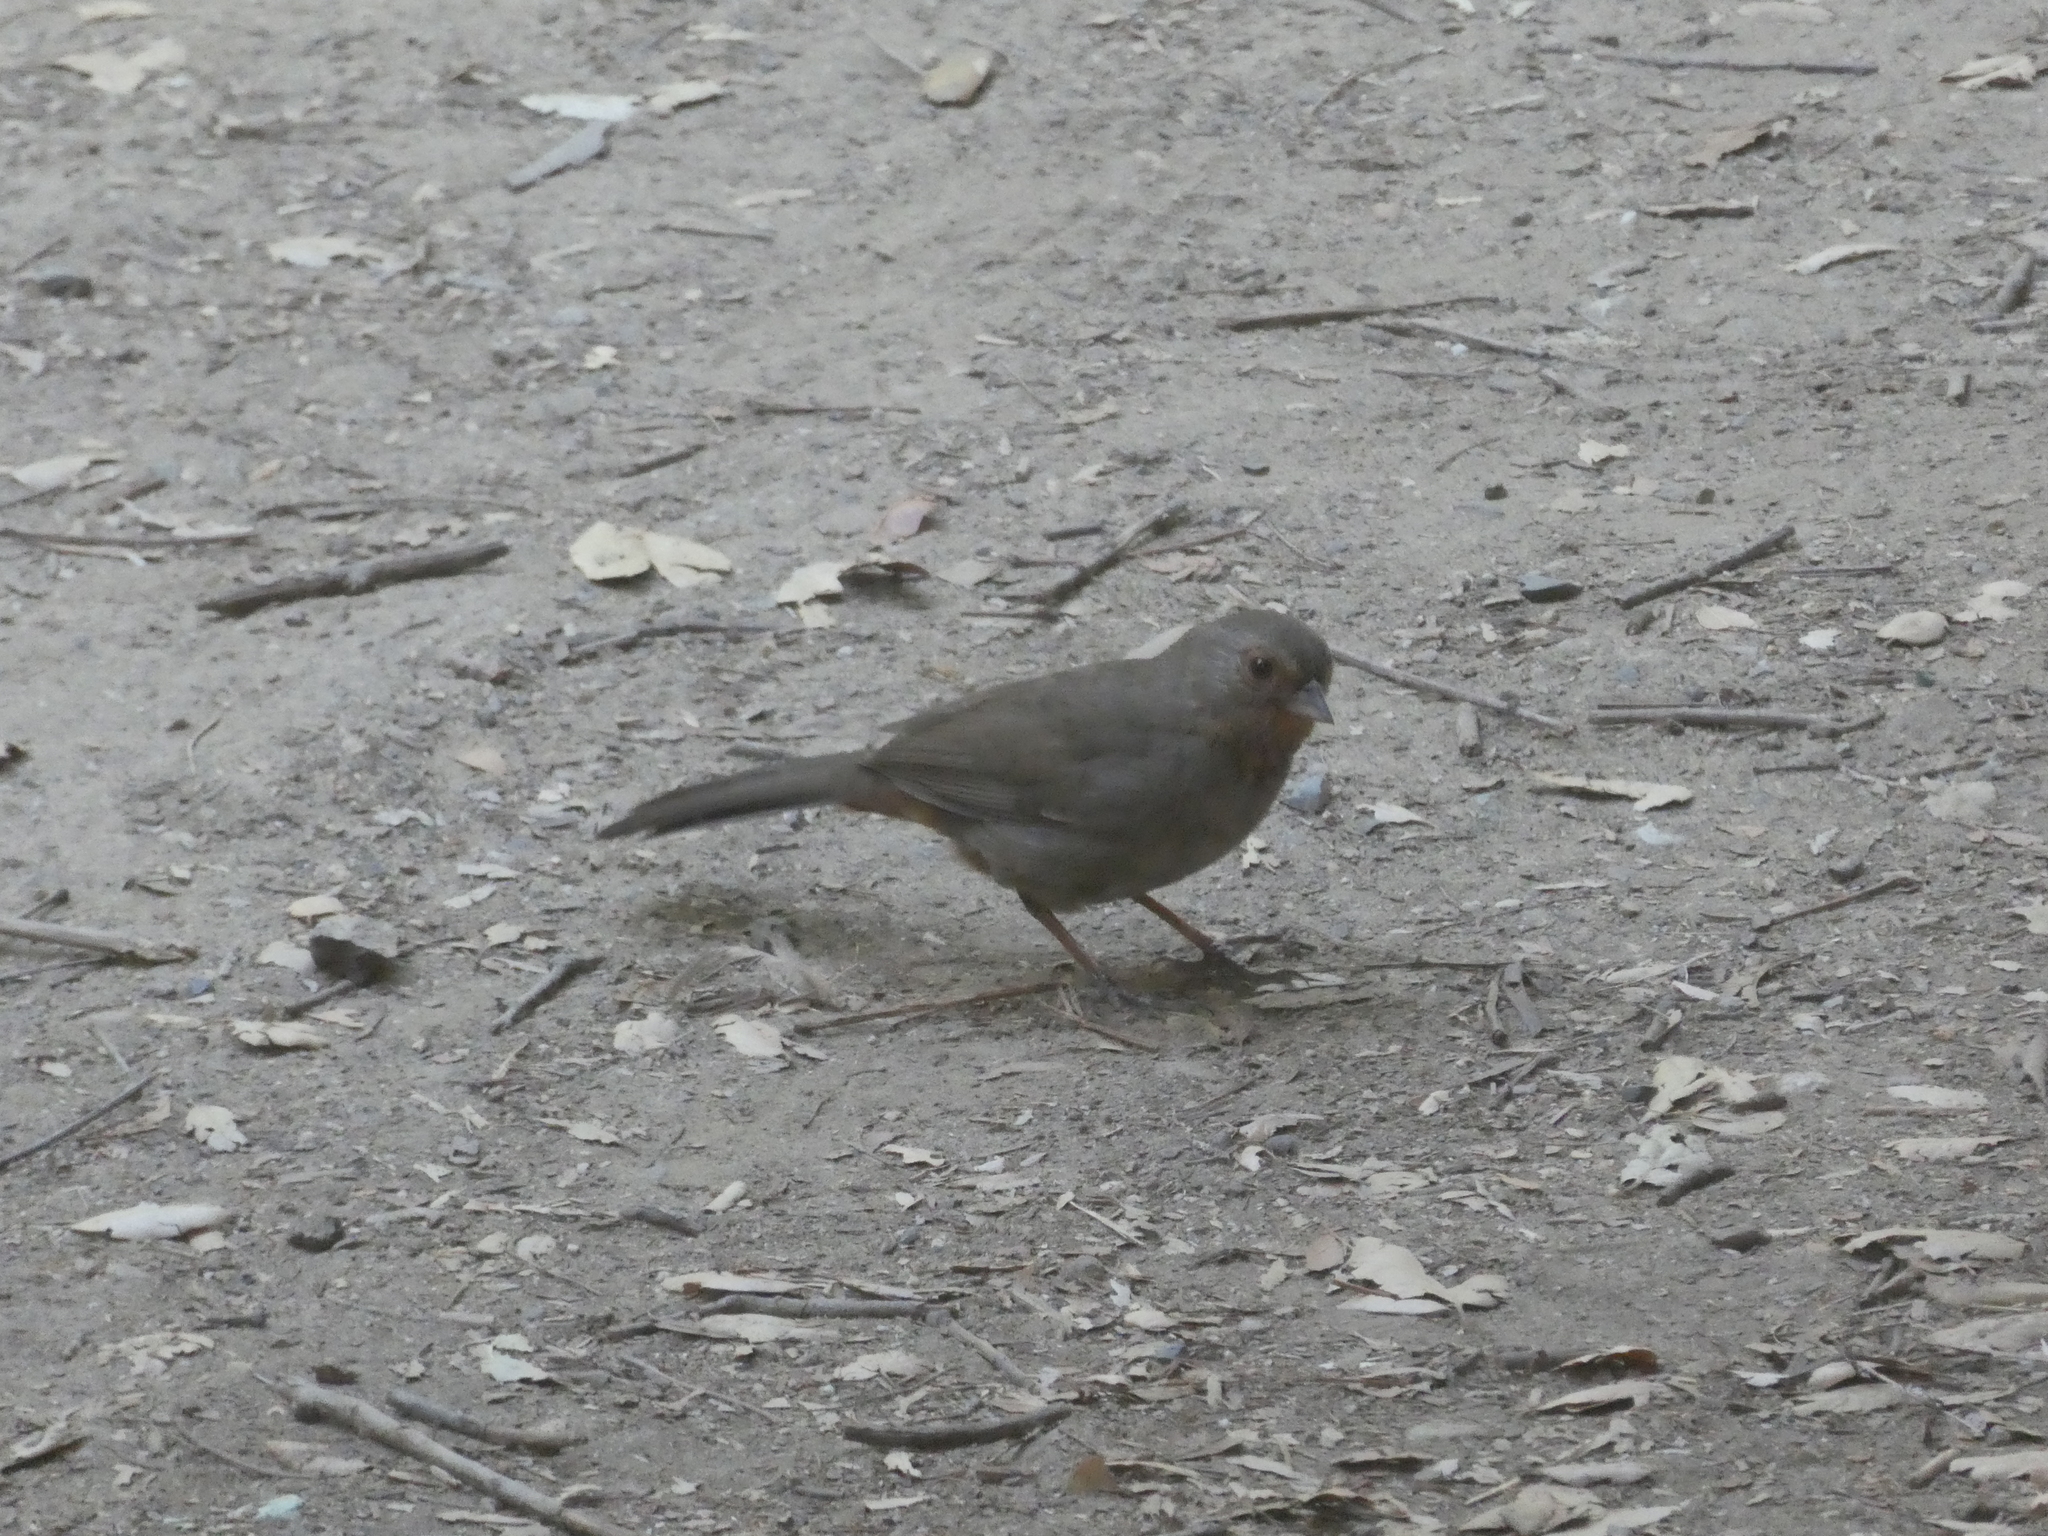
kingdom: Animalia
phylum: Chordata
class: Aves
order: Passeriformes
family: Passerellidae
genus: Melozone
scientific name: Melozone crissalis
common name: California towhee
